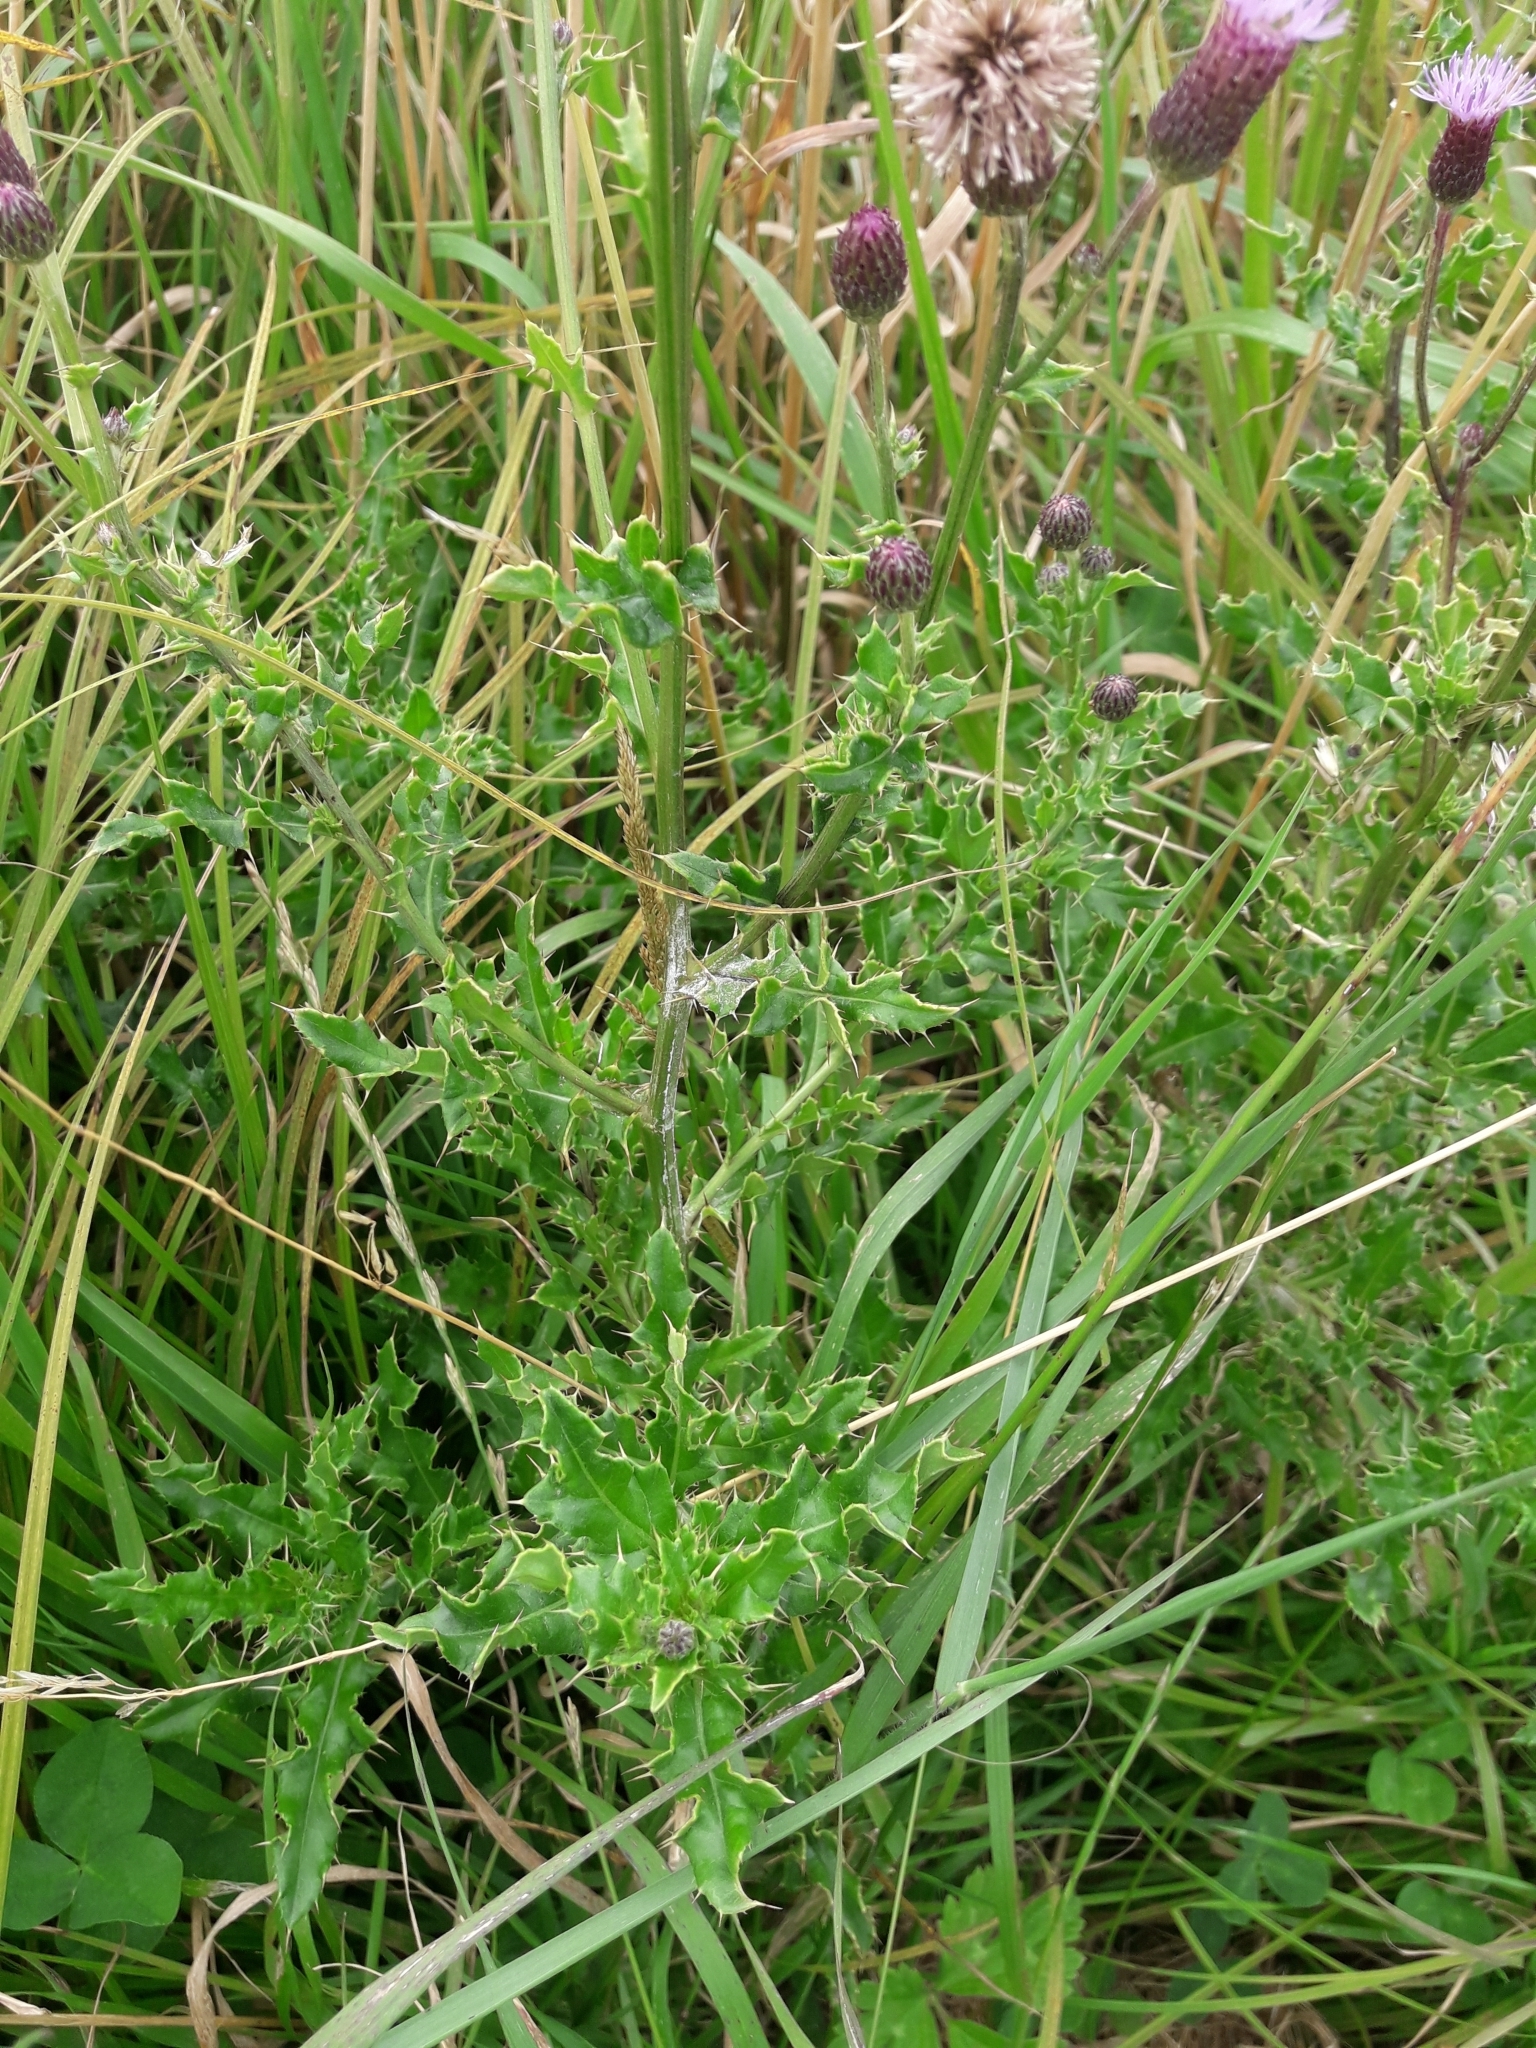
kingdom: Plantae
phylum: Tracheophyta
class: Magnoliopsida
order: Asterales
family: Asteraceae
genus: Cirsium
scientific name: Cirsium arvense
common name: Creeping thistle
